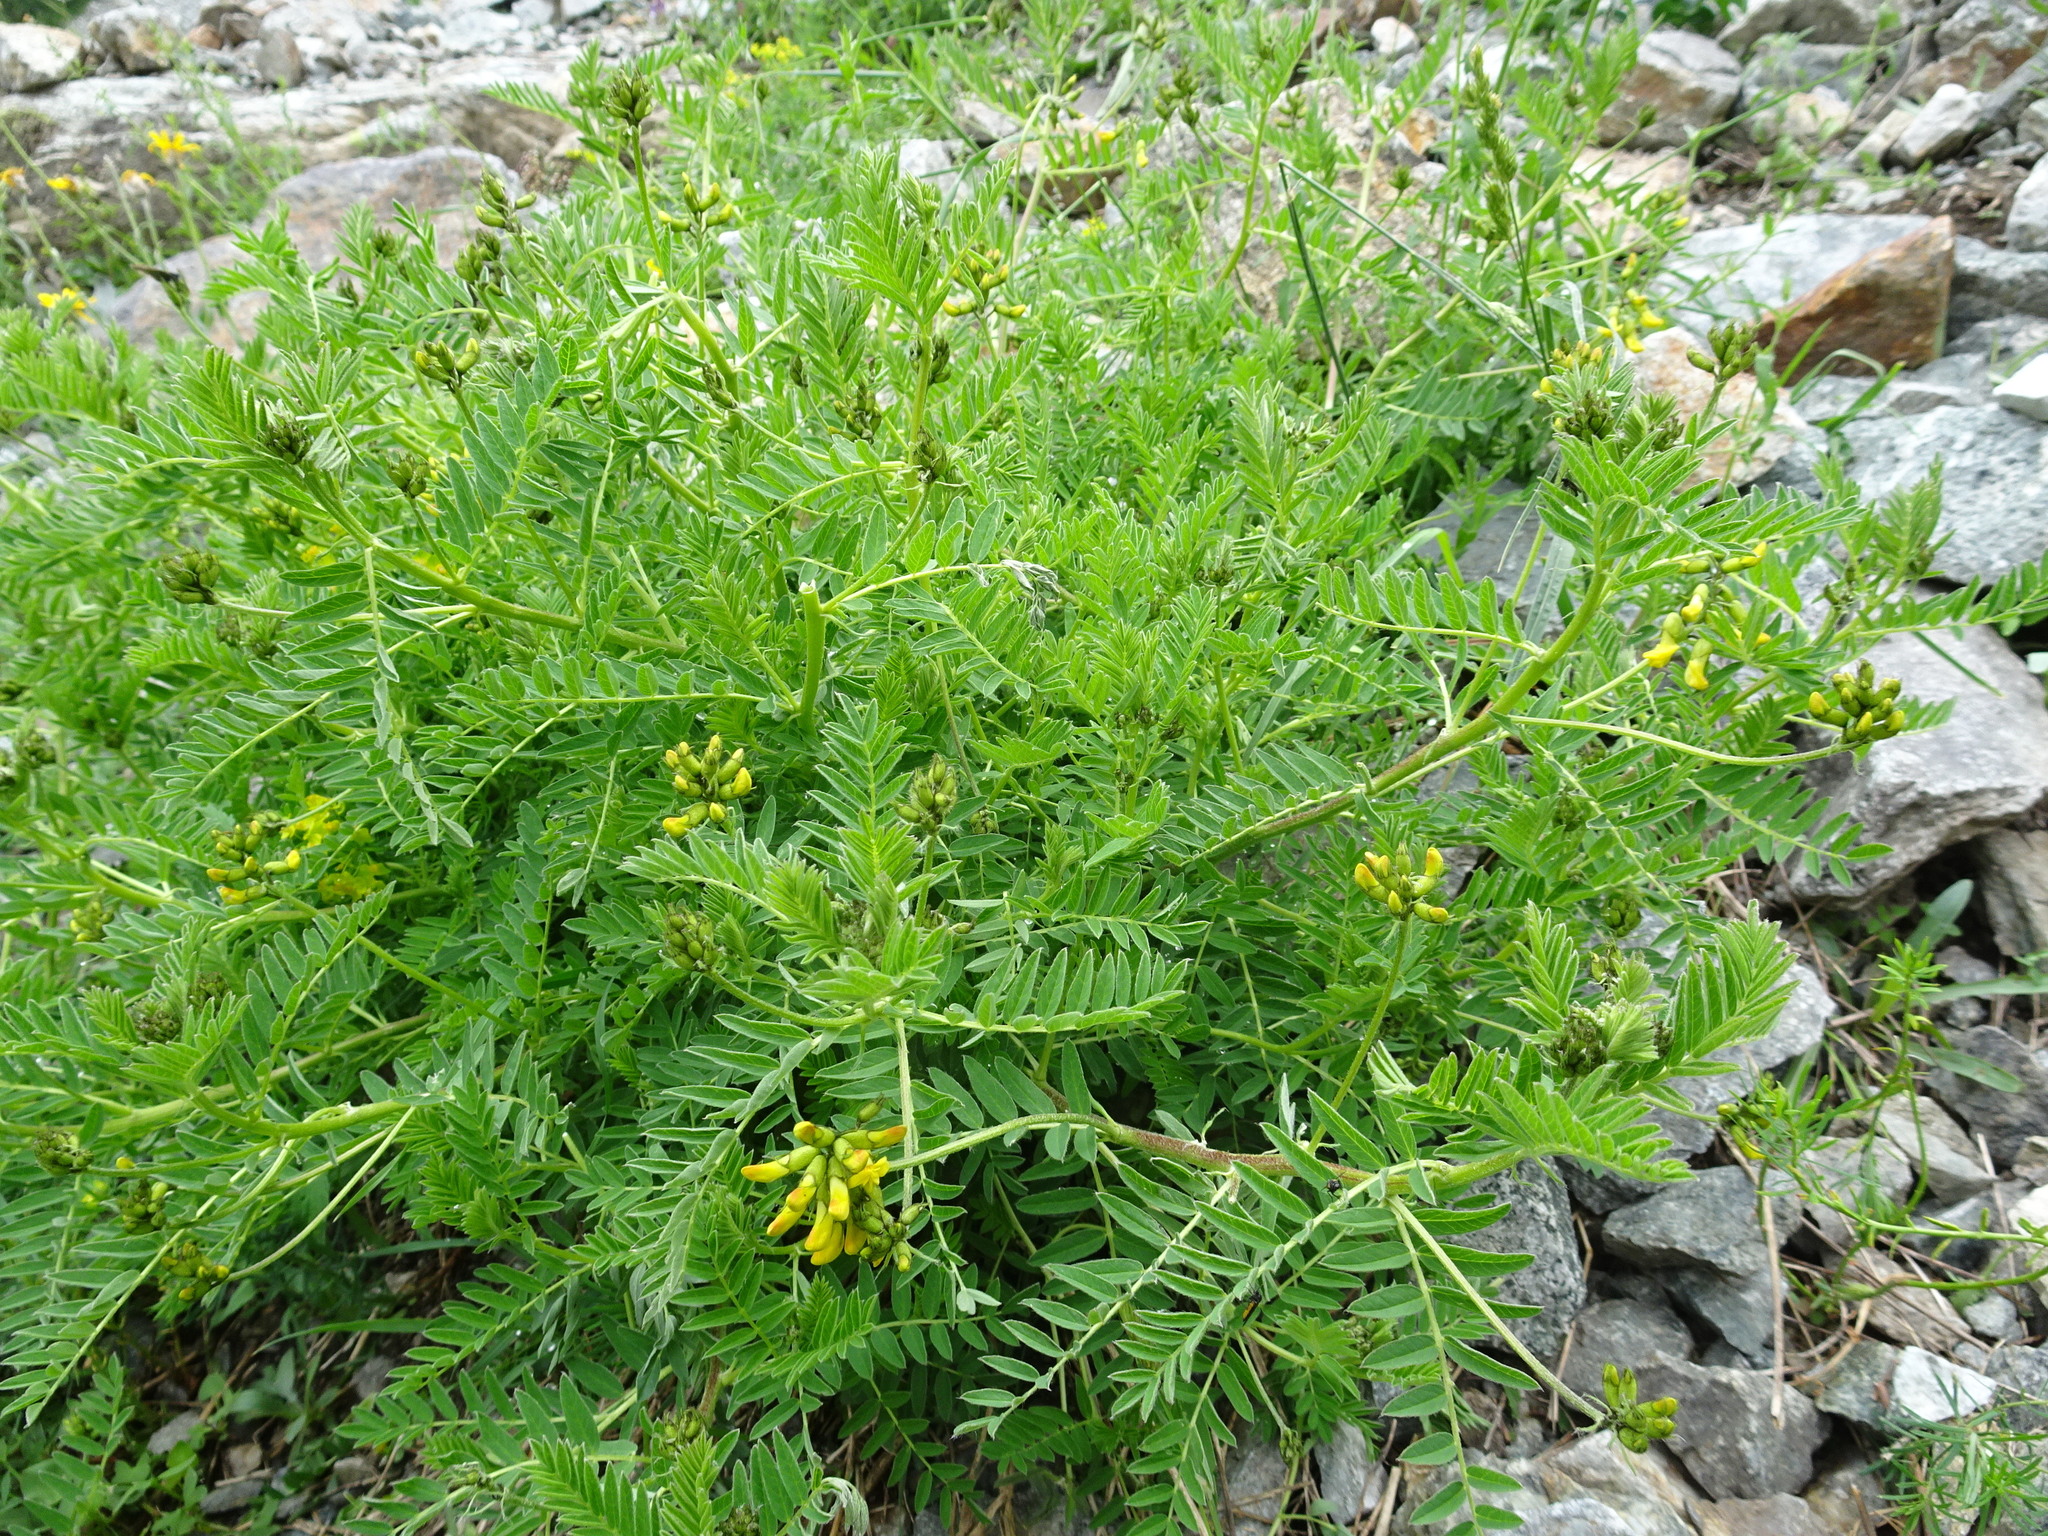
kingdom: Plantae
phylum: Tracheophyta
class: Magnoliopsida
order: Fabales
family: Fabaceae
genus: Astragalus
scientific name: Astragalus penduliflorus
